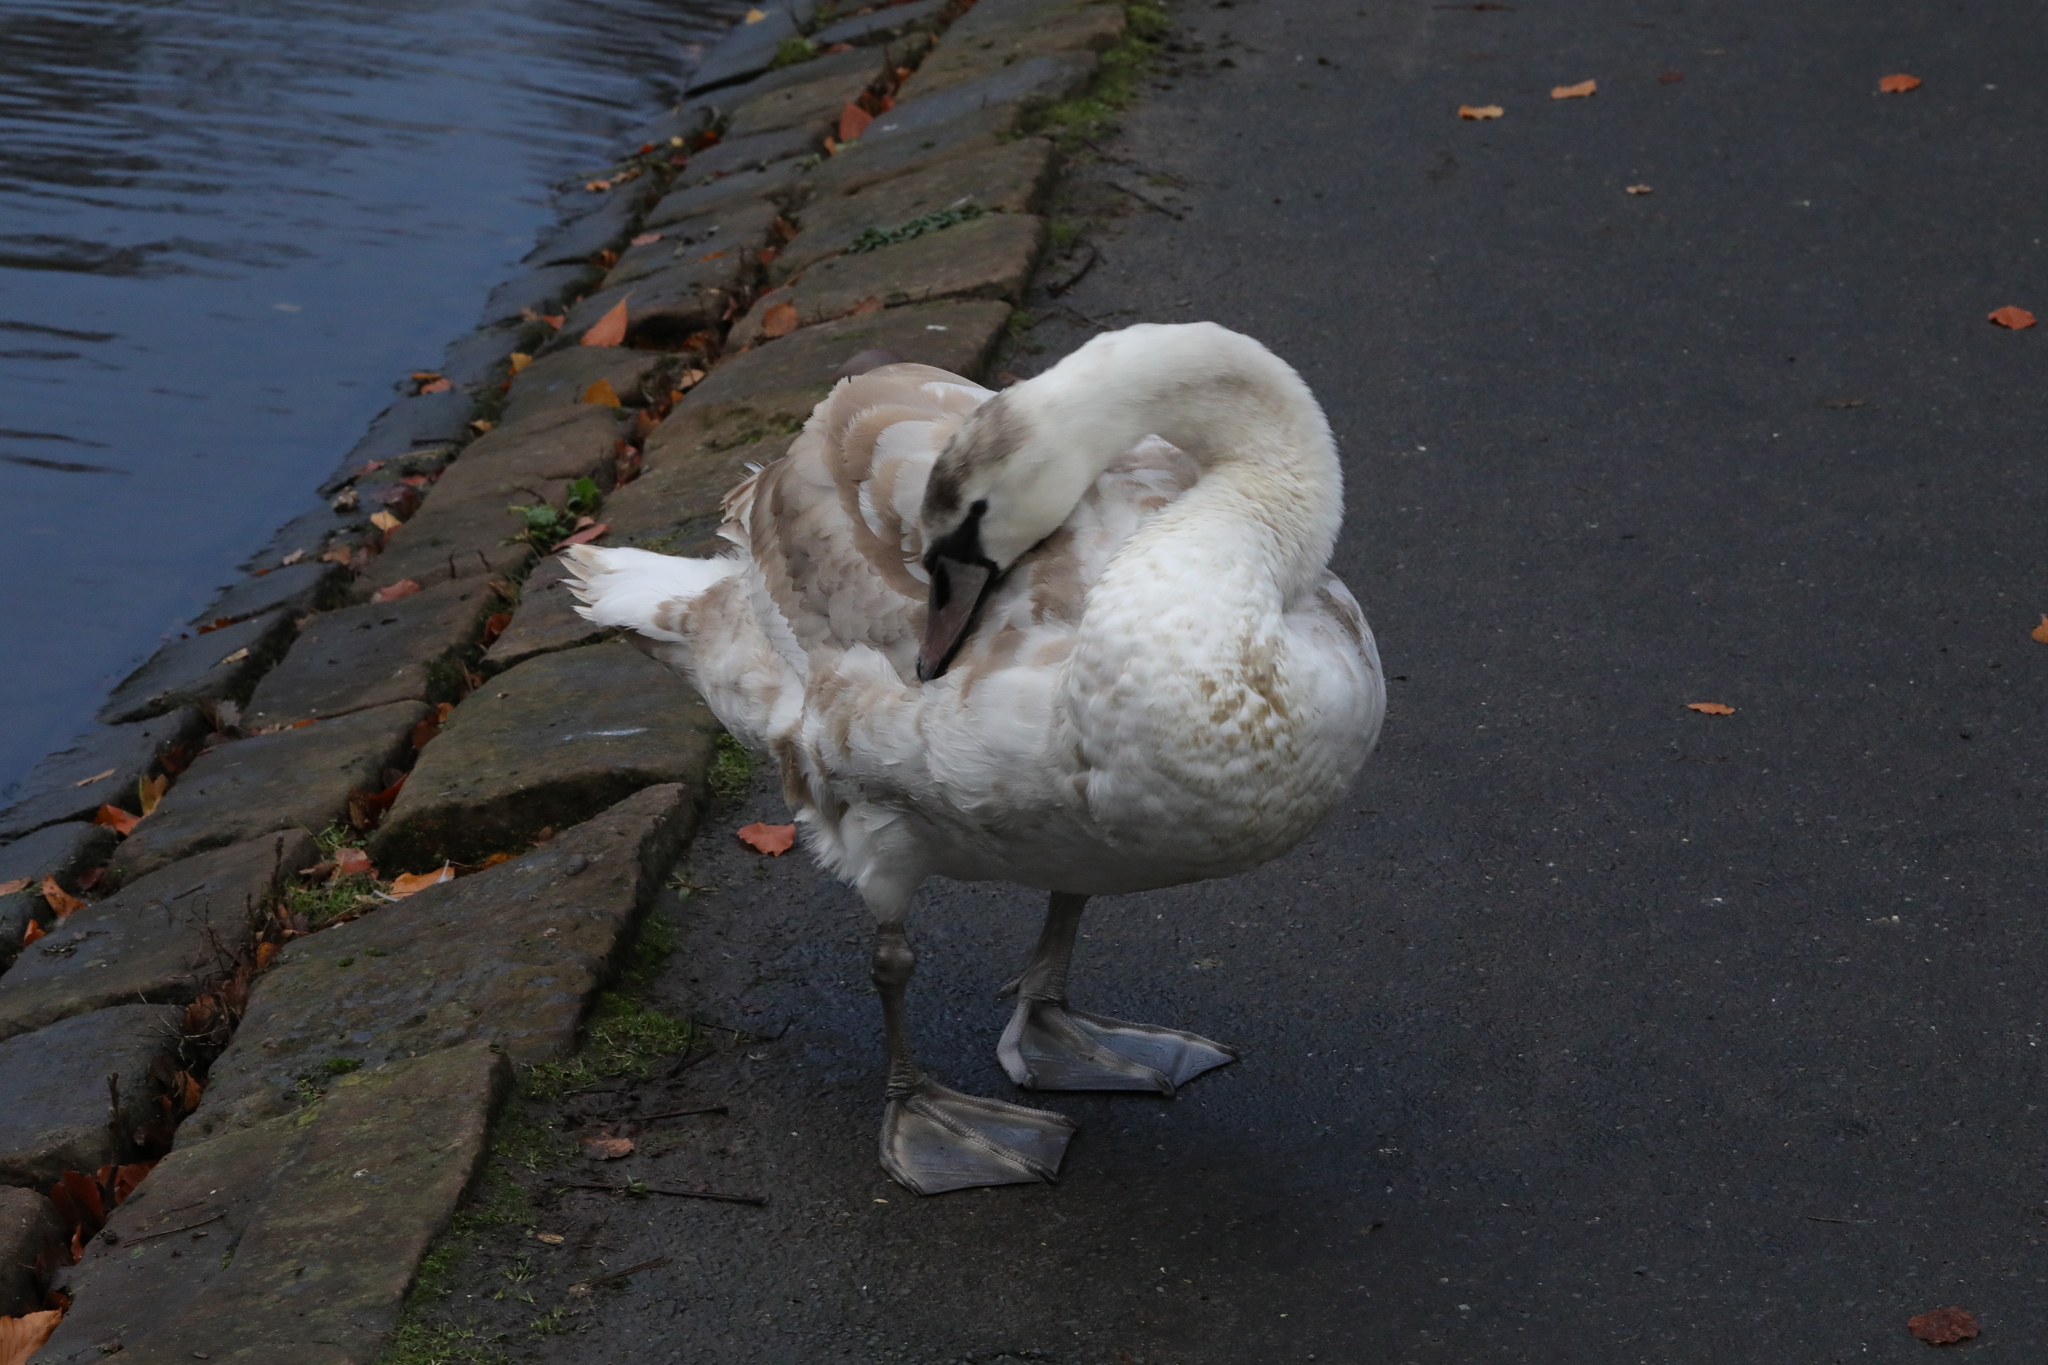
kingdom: Animalia
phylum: Chordata
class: Aves
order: Anseriformes
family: Anatidae
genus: Cygnus
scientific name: Cygnus olor
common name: Mute swan
